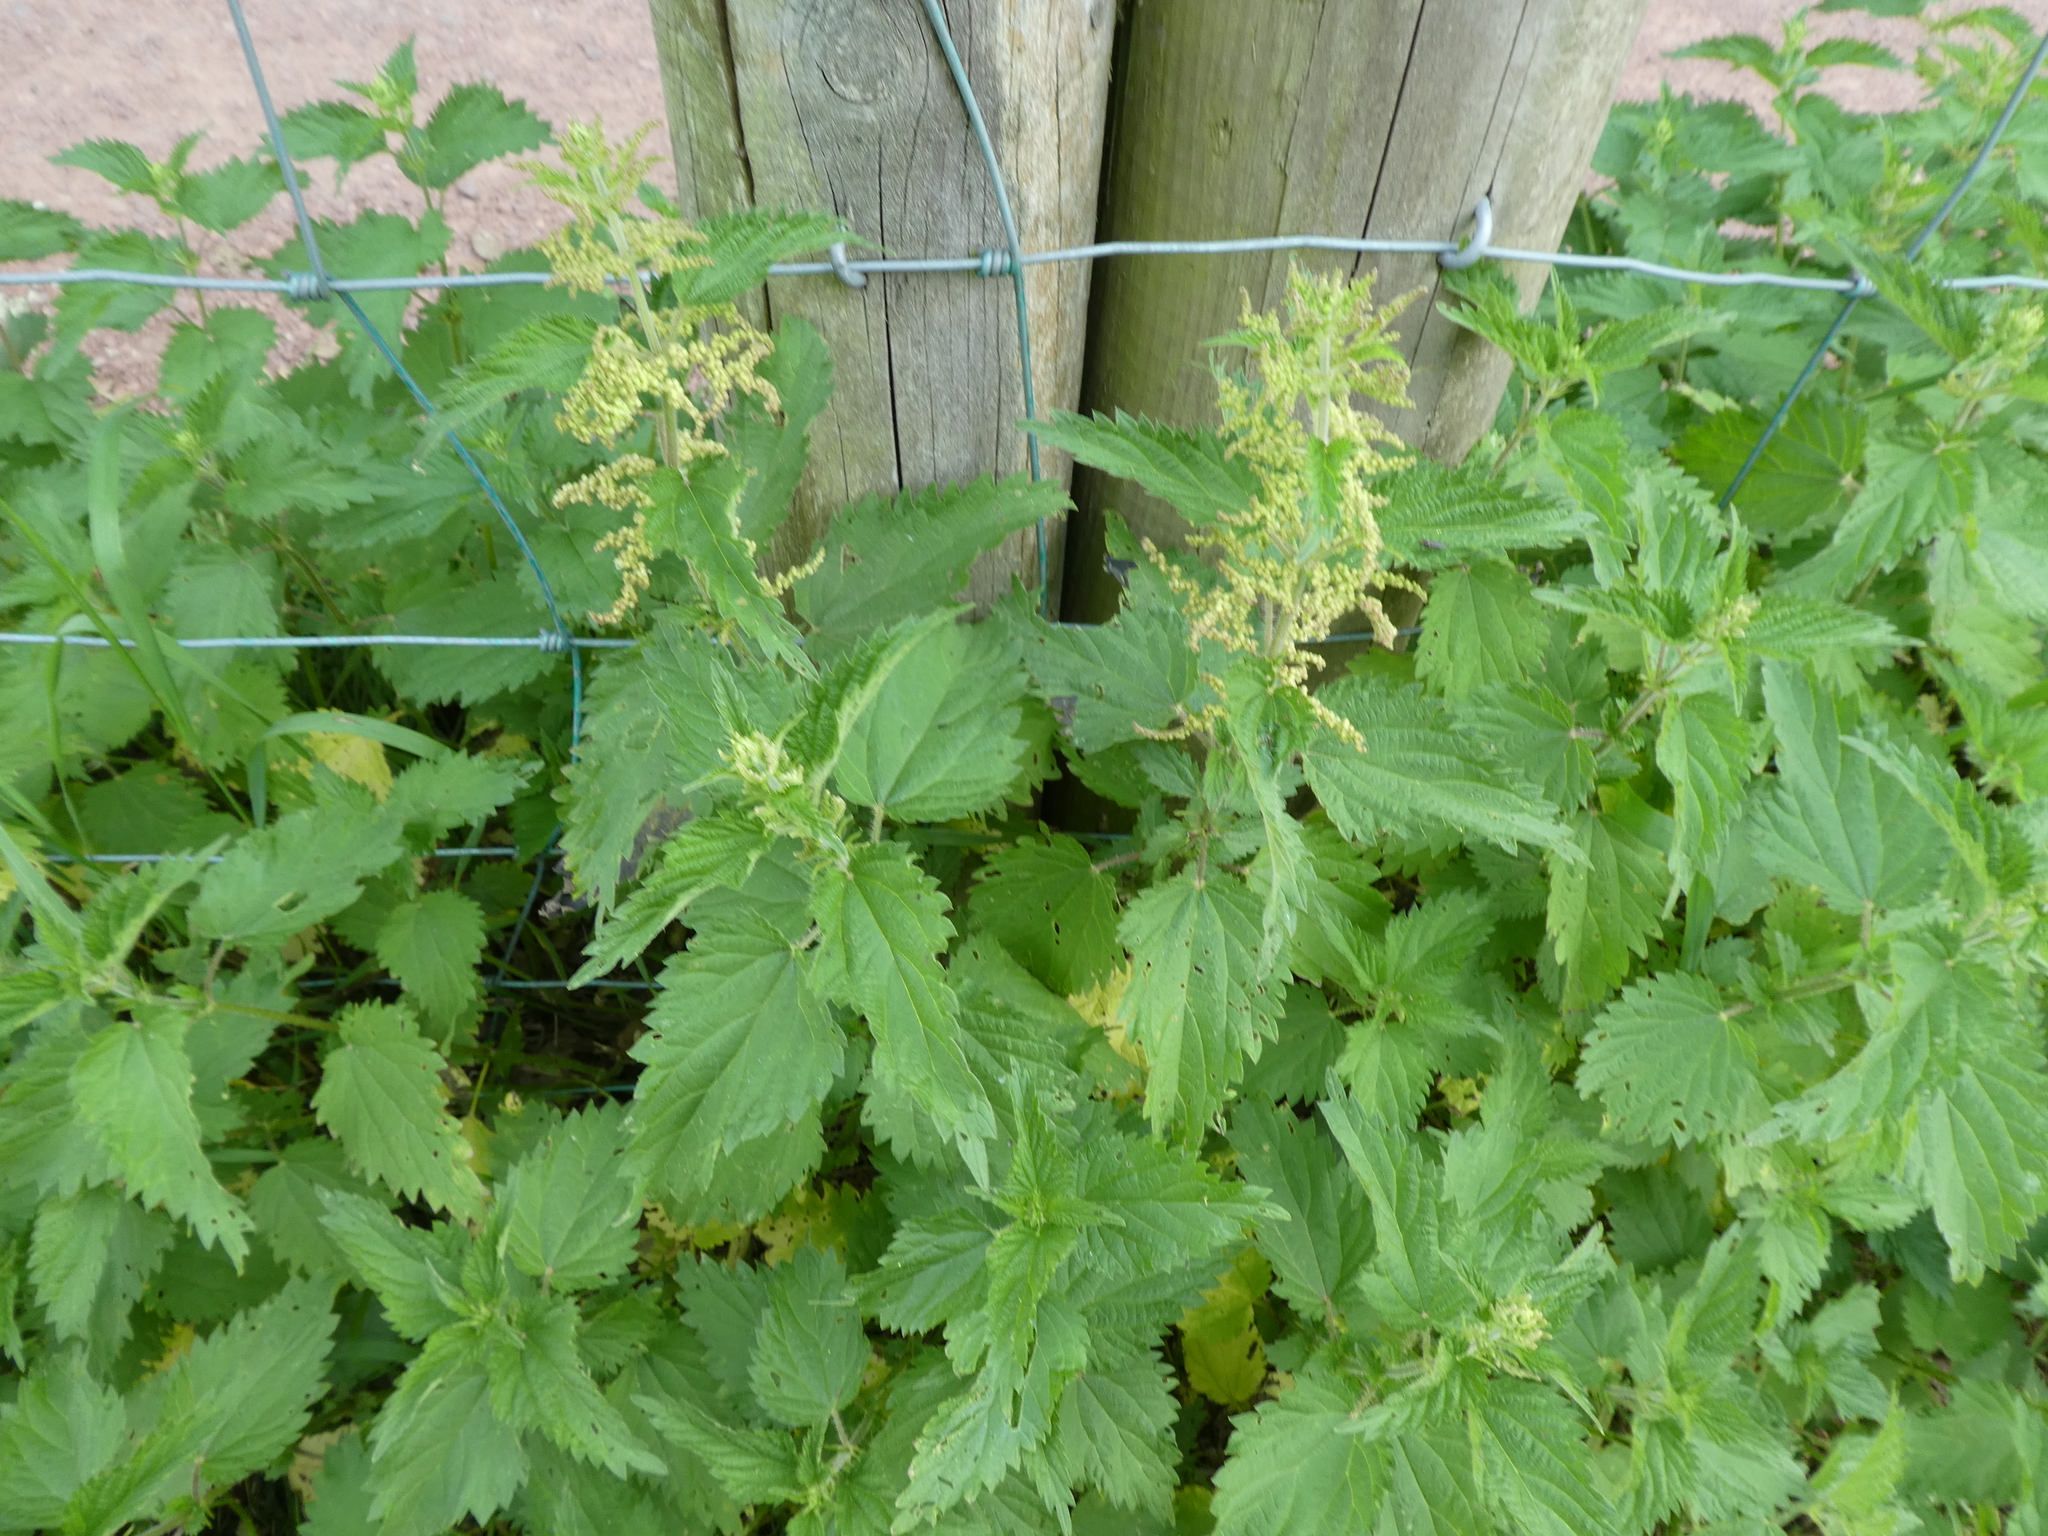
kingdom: Plantae
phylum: Tracheophyta
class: Magnoliopsida
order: Rosales
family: Urticaceae
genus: Urtica
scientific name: Urtica dioica
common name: Common nettle
